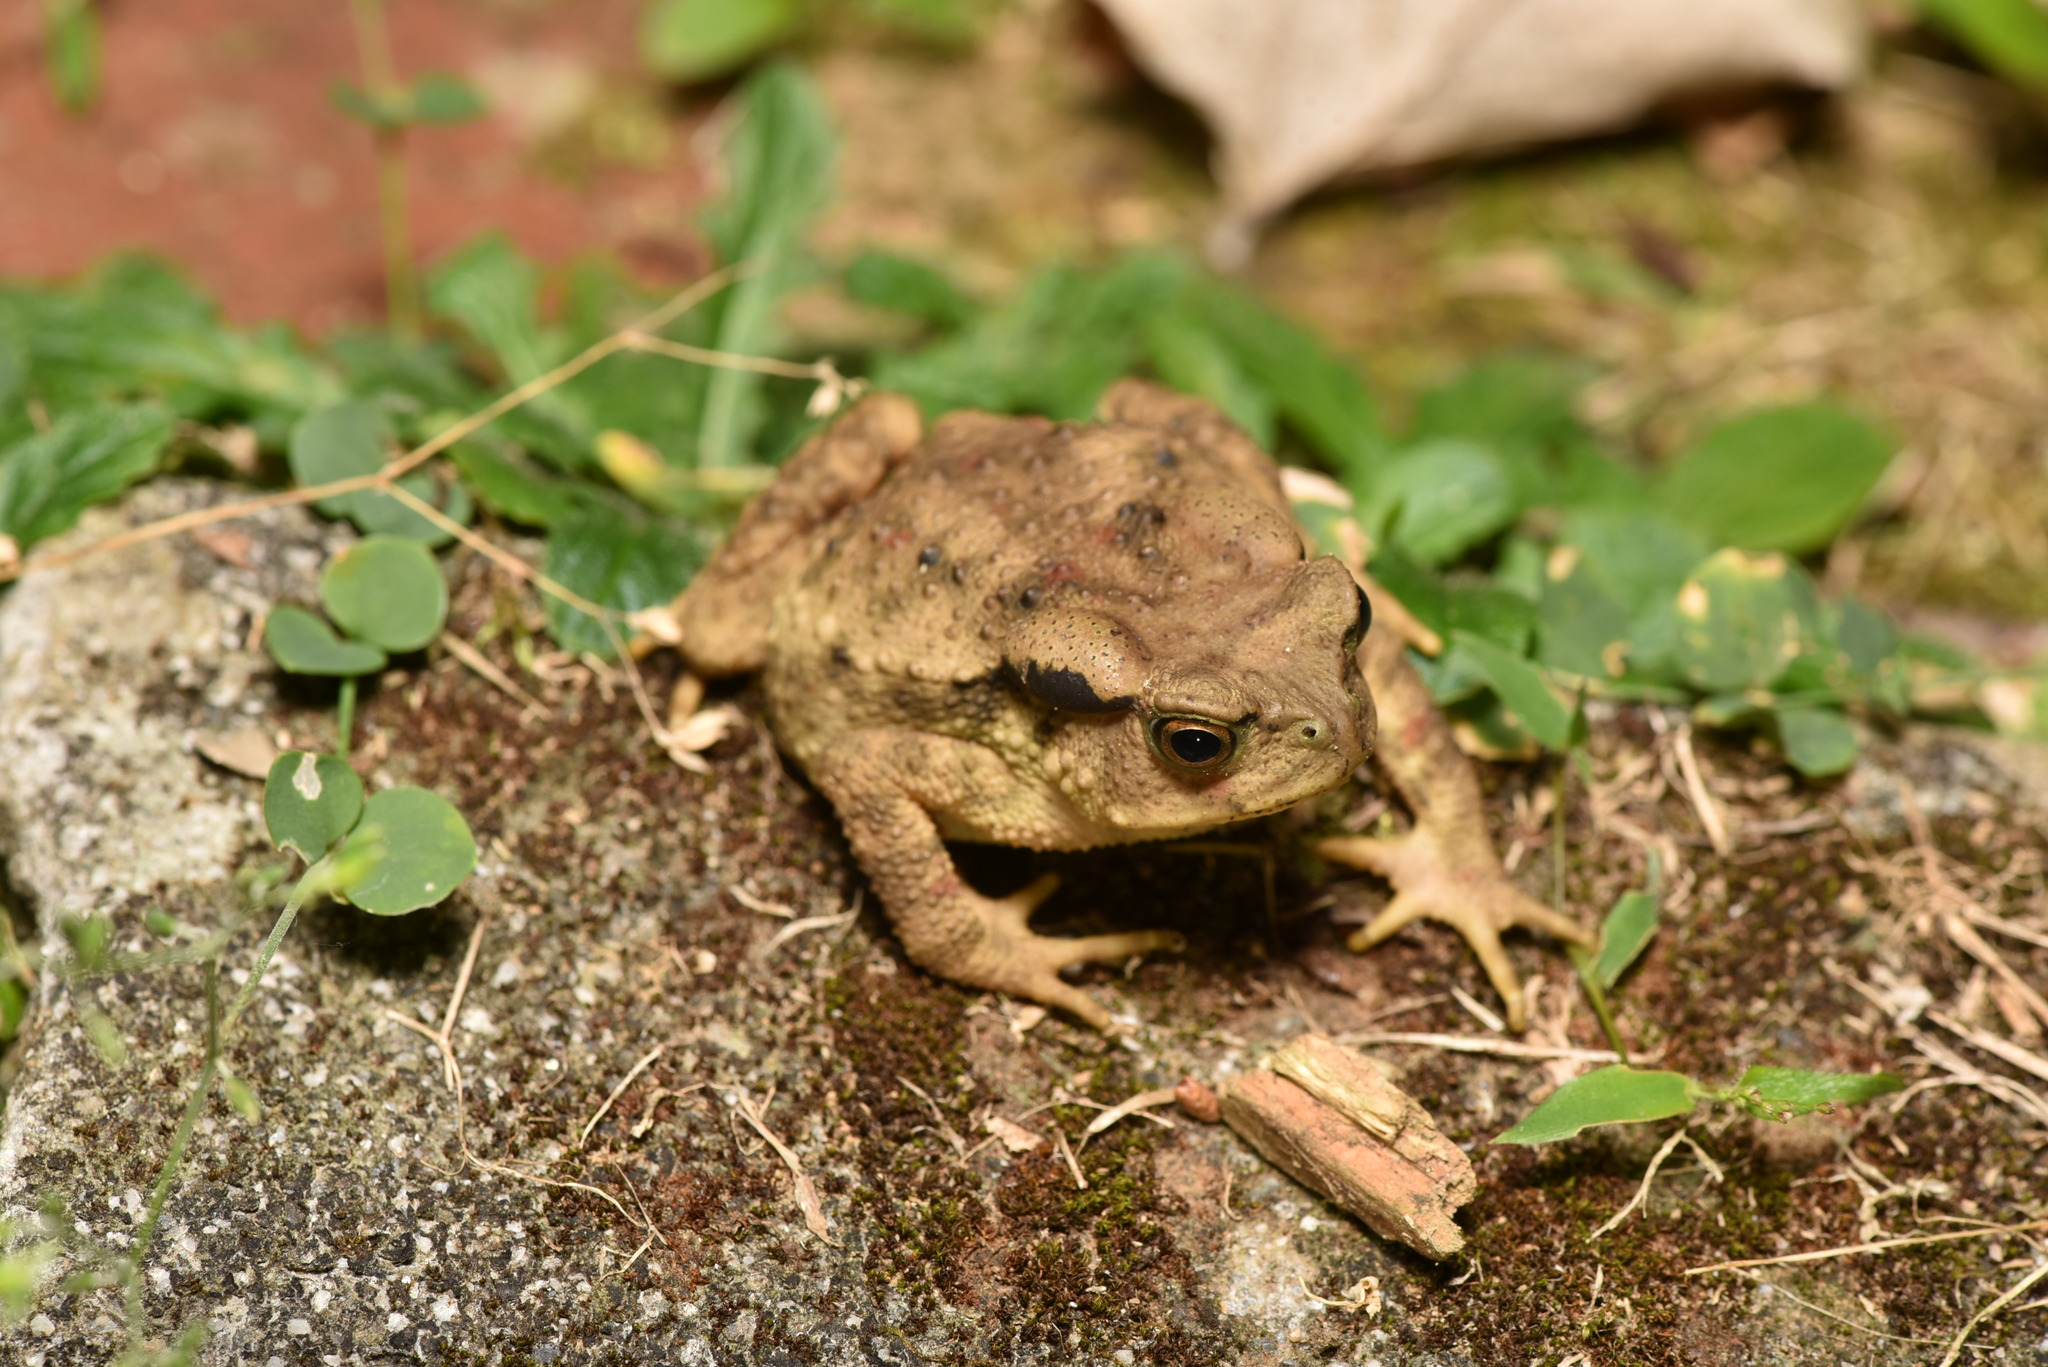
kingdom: Animalia
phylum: Chordata
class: Amphibia
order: Anura
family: Bufonidae
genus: Bufo
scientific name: Bufo bankorensis
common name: Bankor toad
